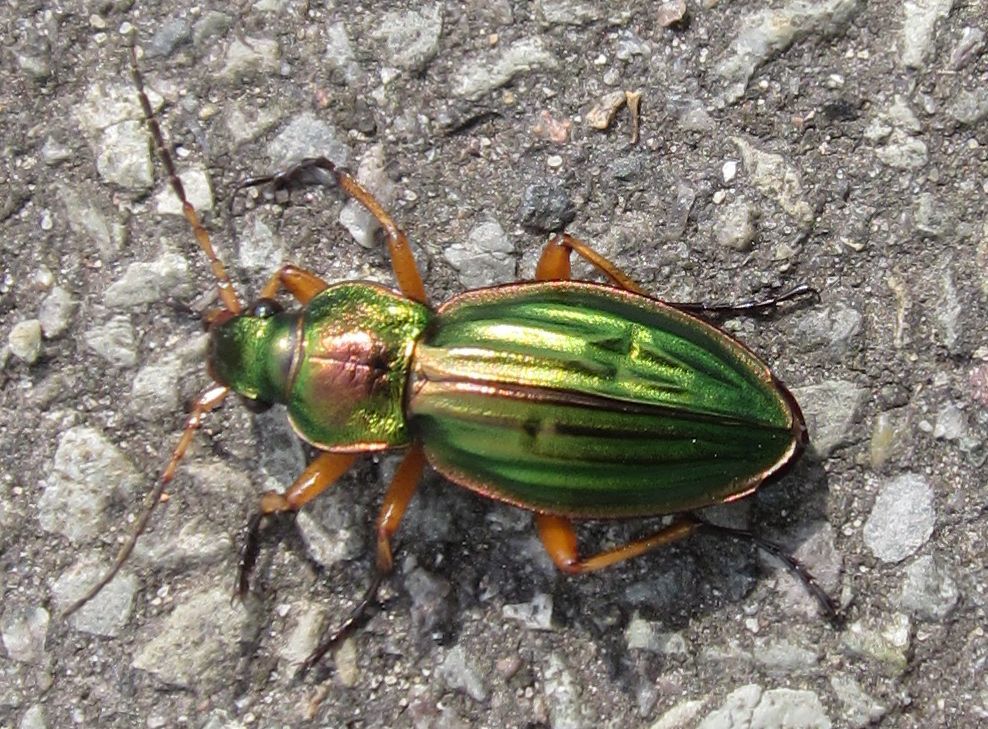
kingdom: Animalia
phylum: Arthropoda
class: Insecta
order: Coleoptera
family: Carabidae
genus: Carabus
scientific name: Carabus auratus
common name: Golden ground beetle
